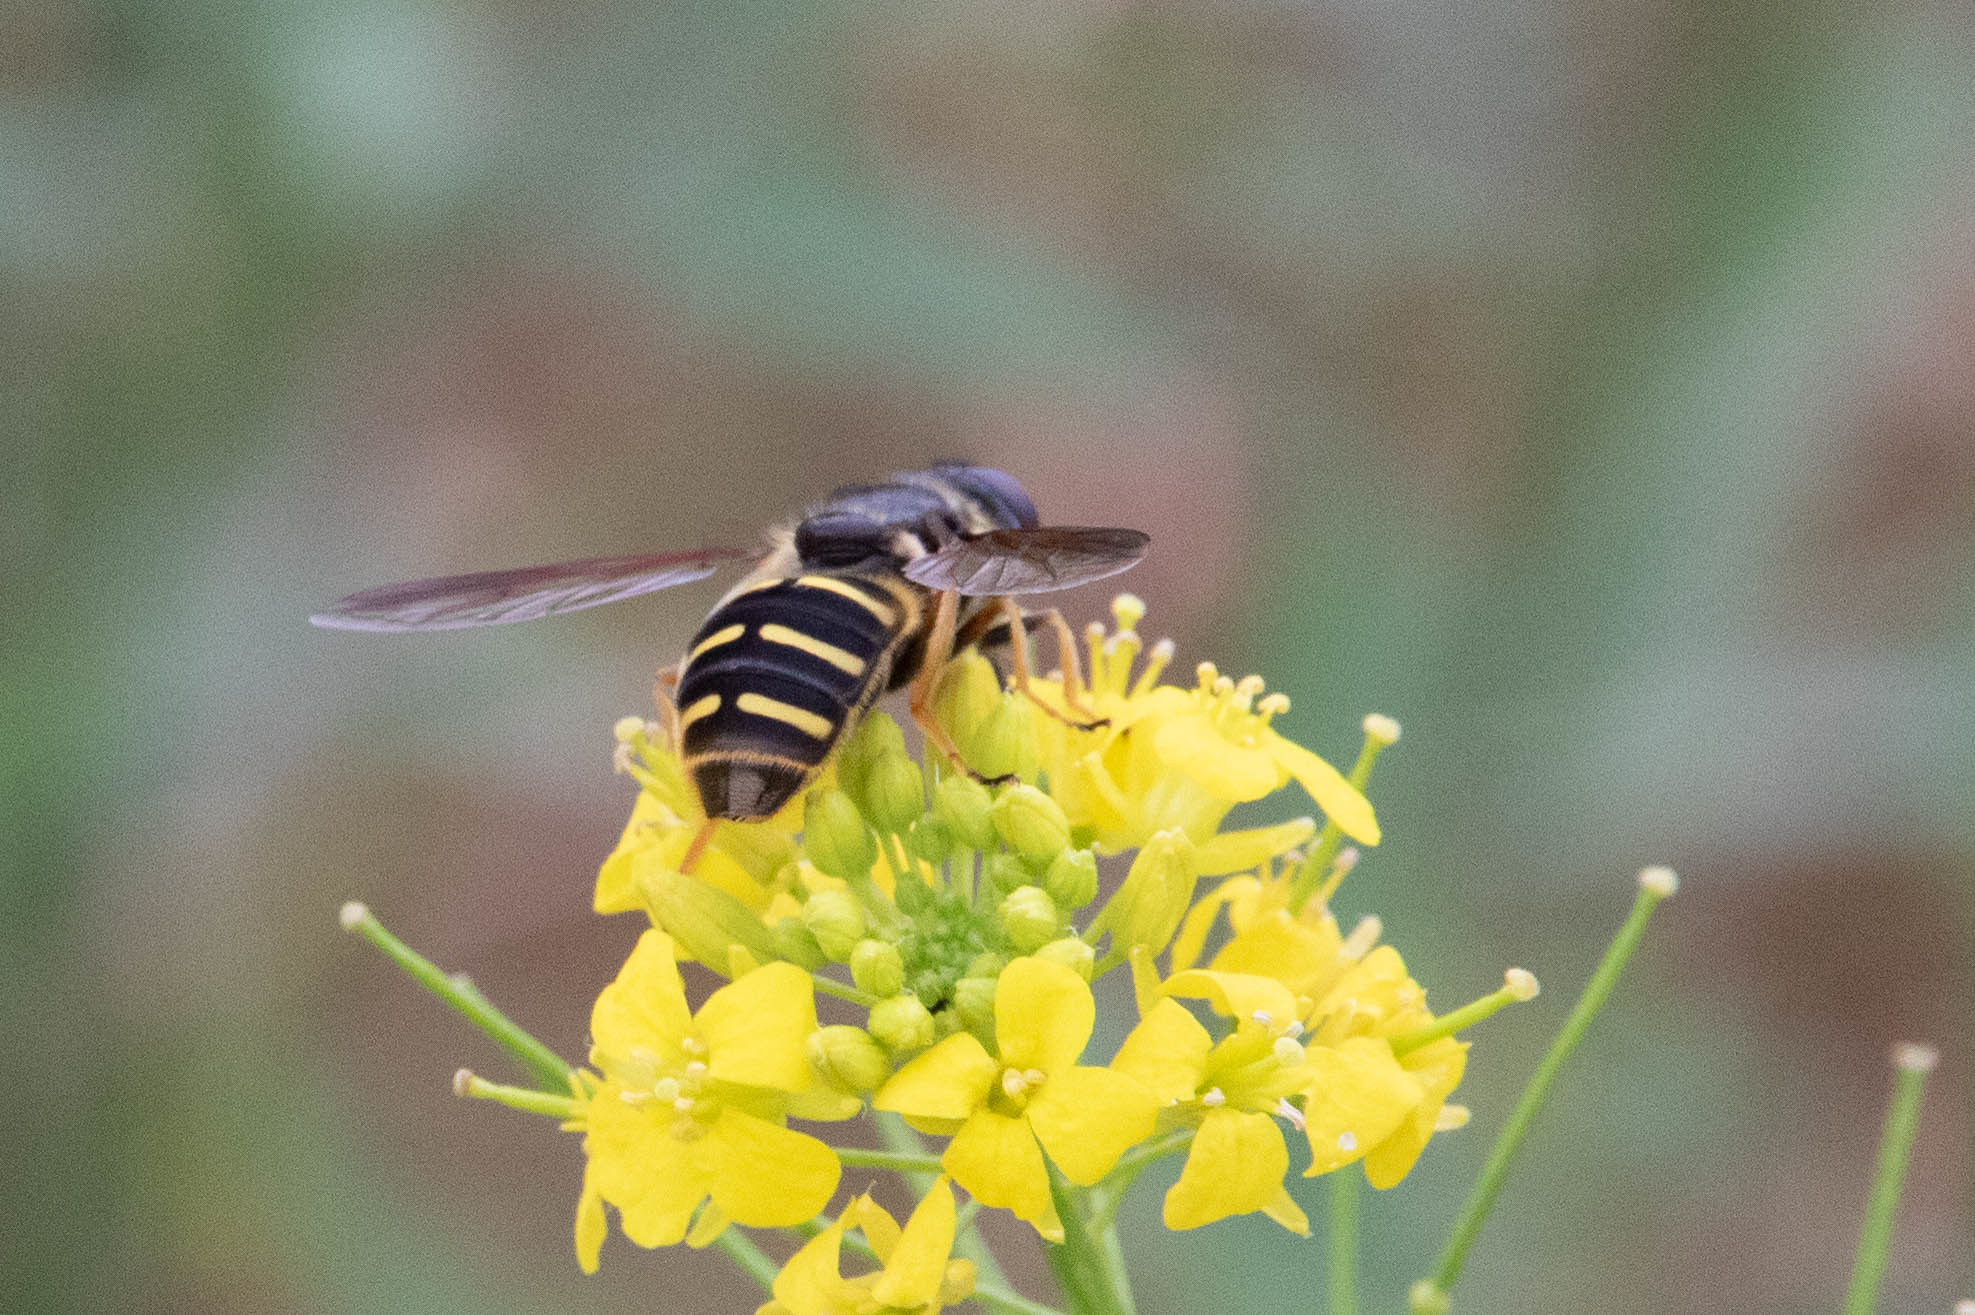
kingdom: Animalia
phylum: Arthropoda
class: Insecta
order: Diptera
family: Syrphidae
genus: Sericomyia
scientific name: Sericomyia chalcopyga
